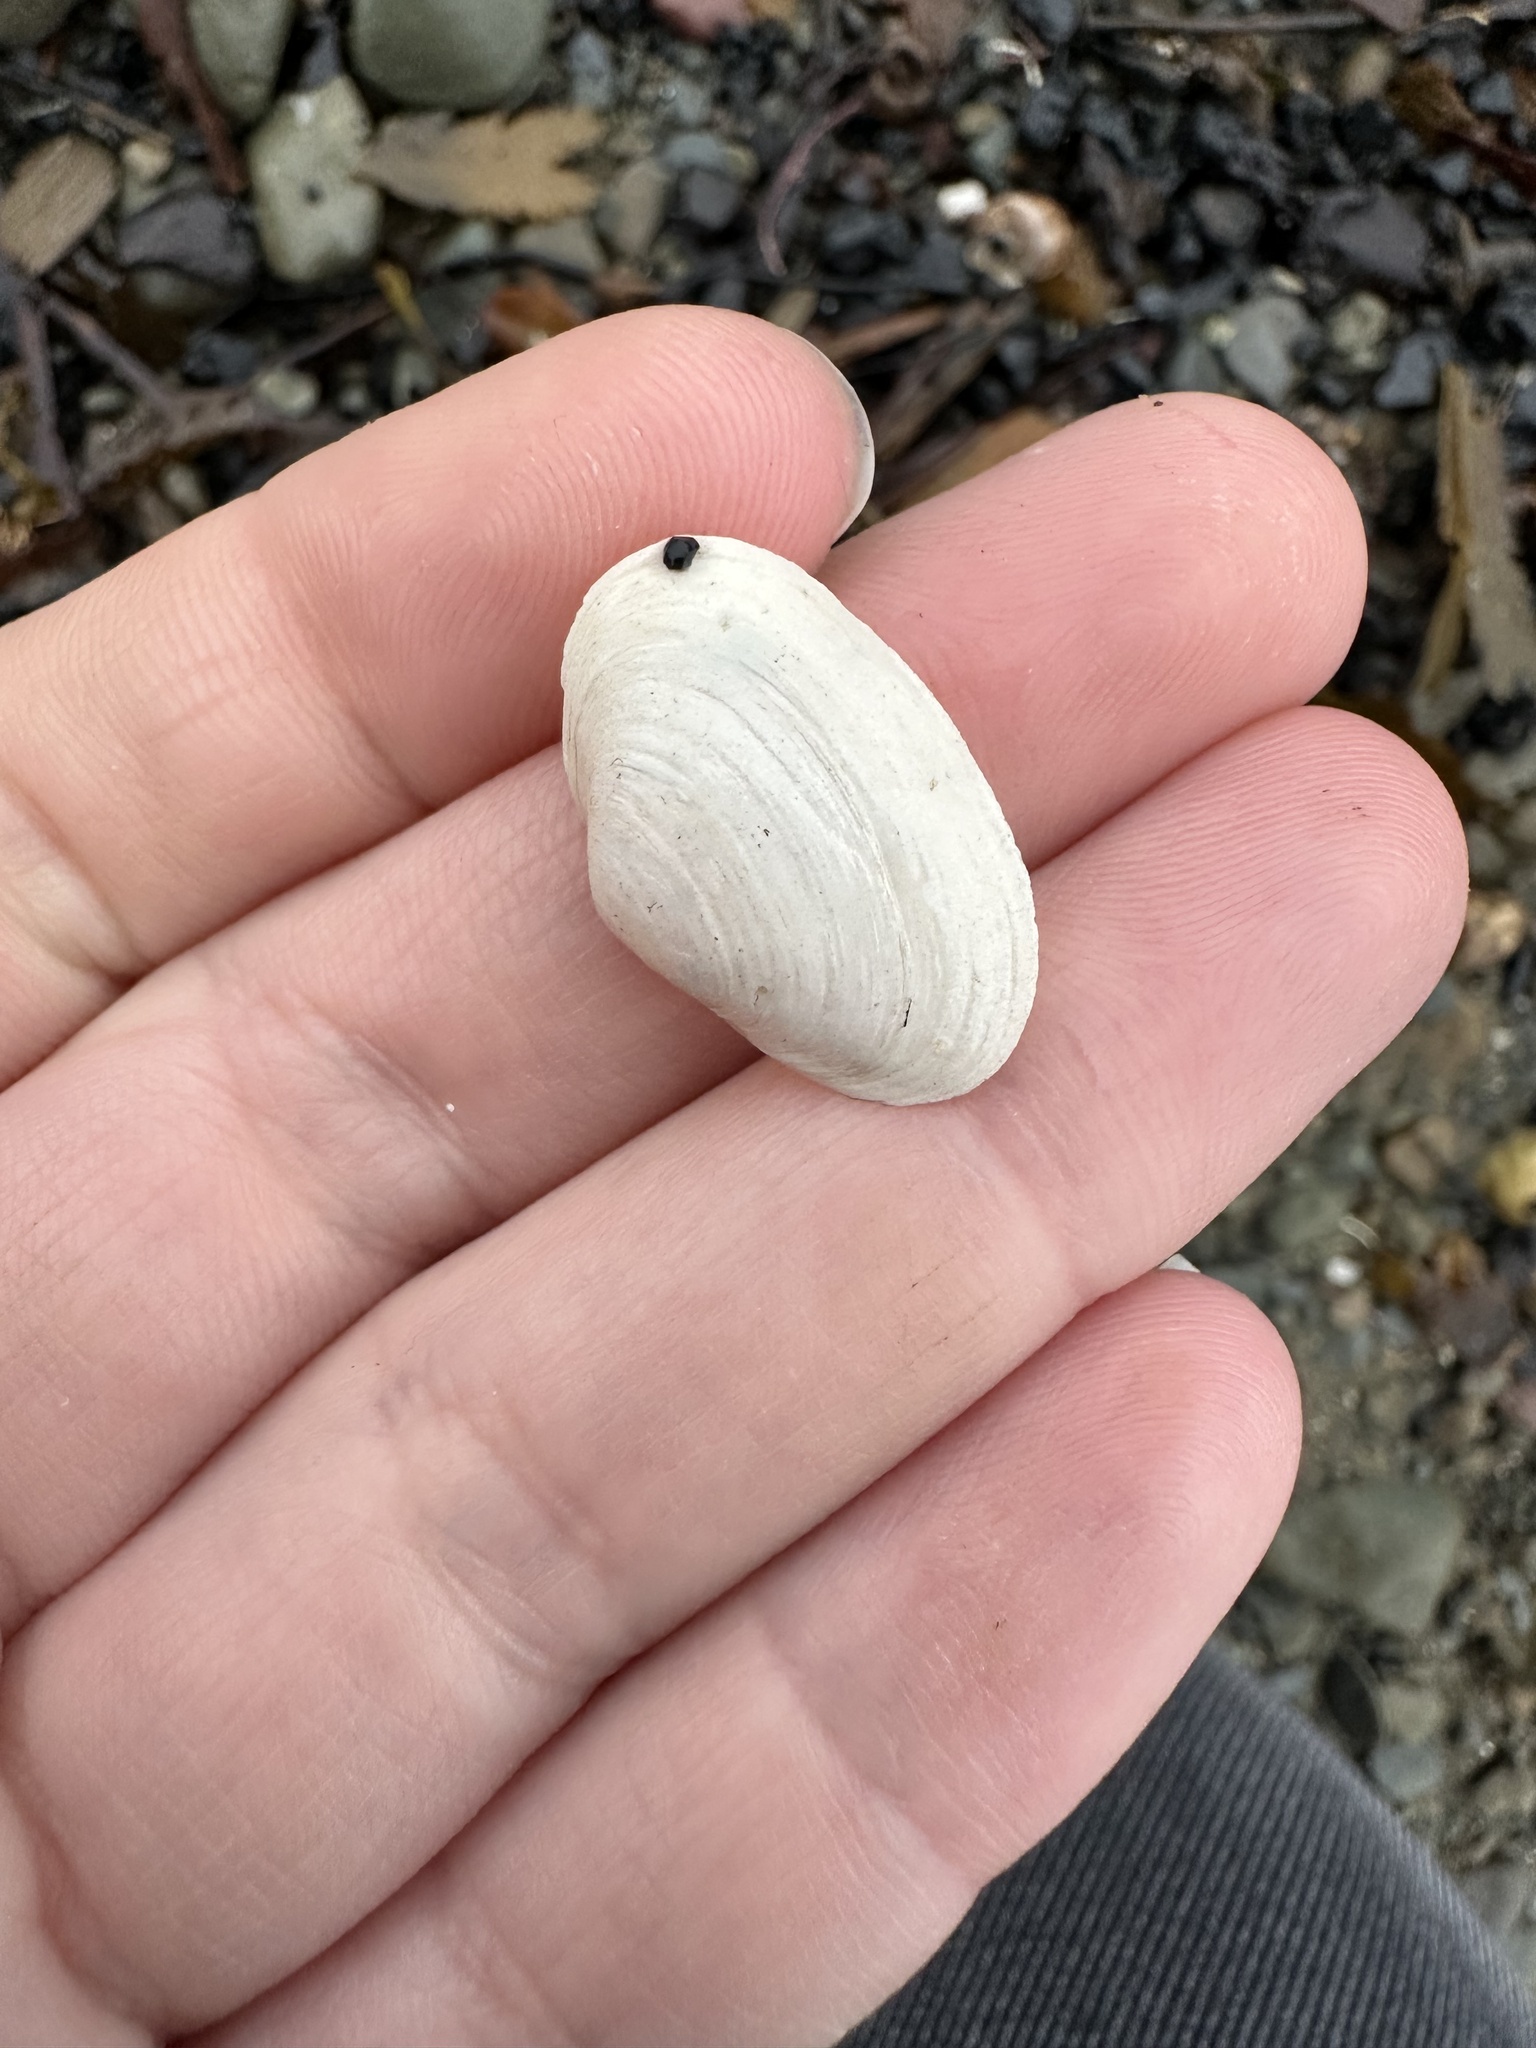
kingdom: Animalia
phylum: Mollusca
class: Bivalvia
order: Myida
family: Myidae
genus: Mya
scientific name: Mya arenaria
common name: Soft-shelled clam
